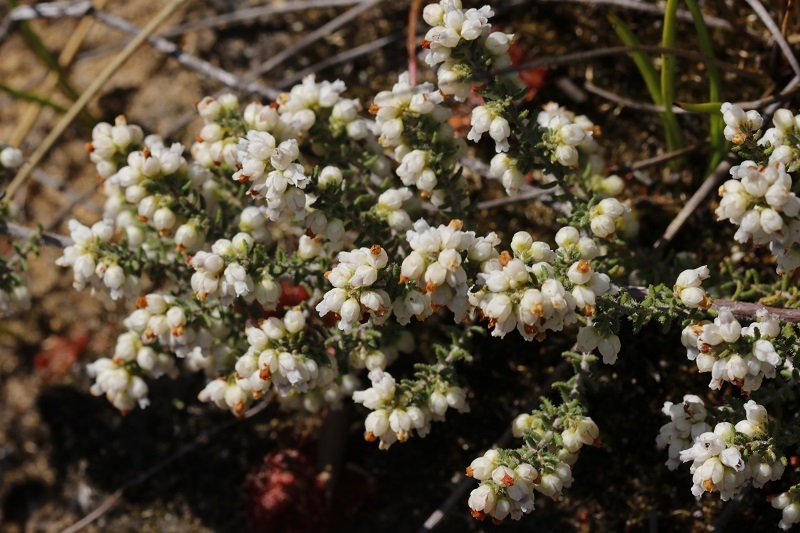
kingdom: Plantae
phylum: Tracheophyta
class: Magnoliopsida
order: Ericales
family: Ericaceae
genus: Erica
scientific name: Erica totta
